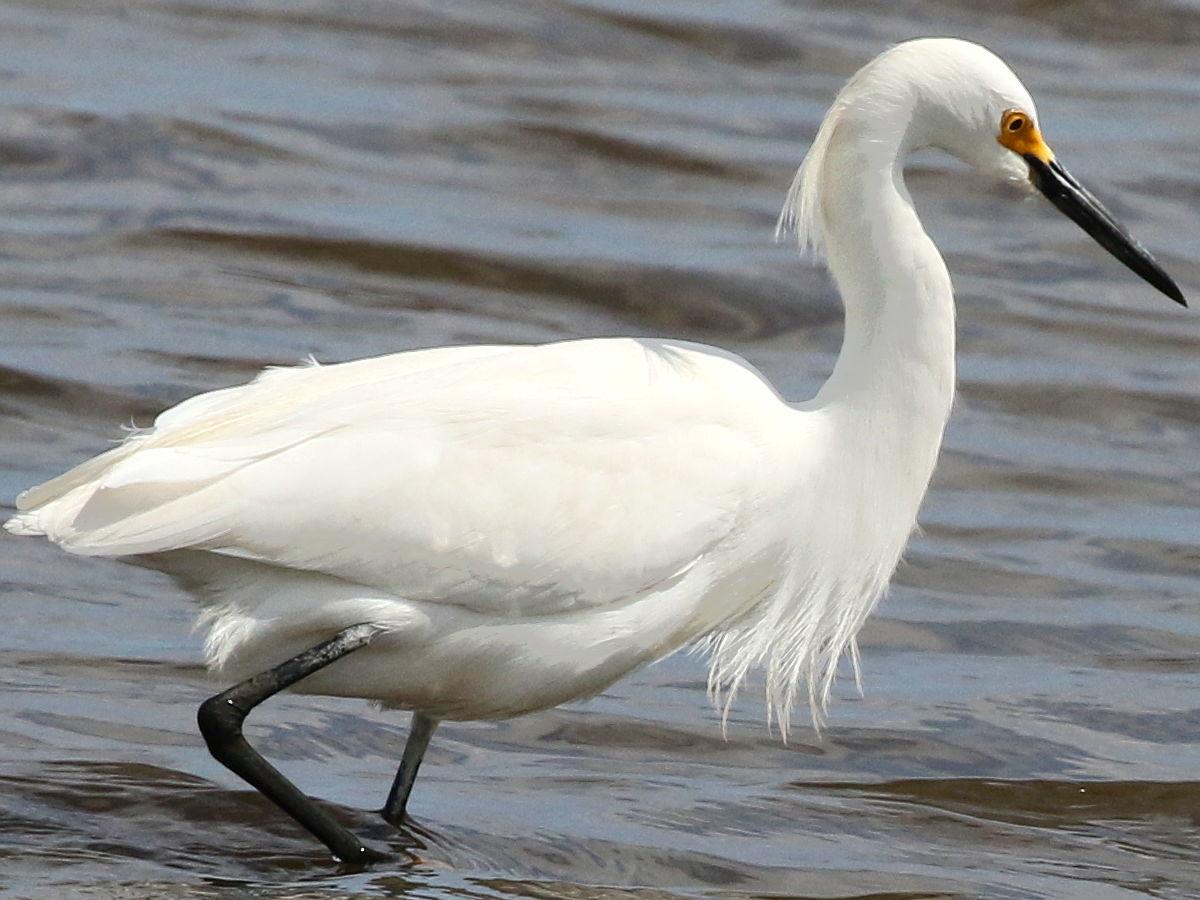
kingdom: Animalia
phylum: Chordata
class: Aves
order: Pelecaniformes
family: Ardeidae
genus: Egretta
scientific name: Egretta thula
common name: Snowy egret
